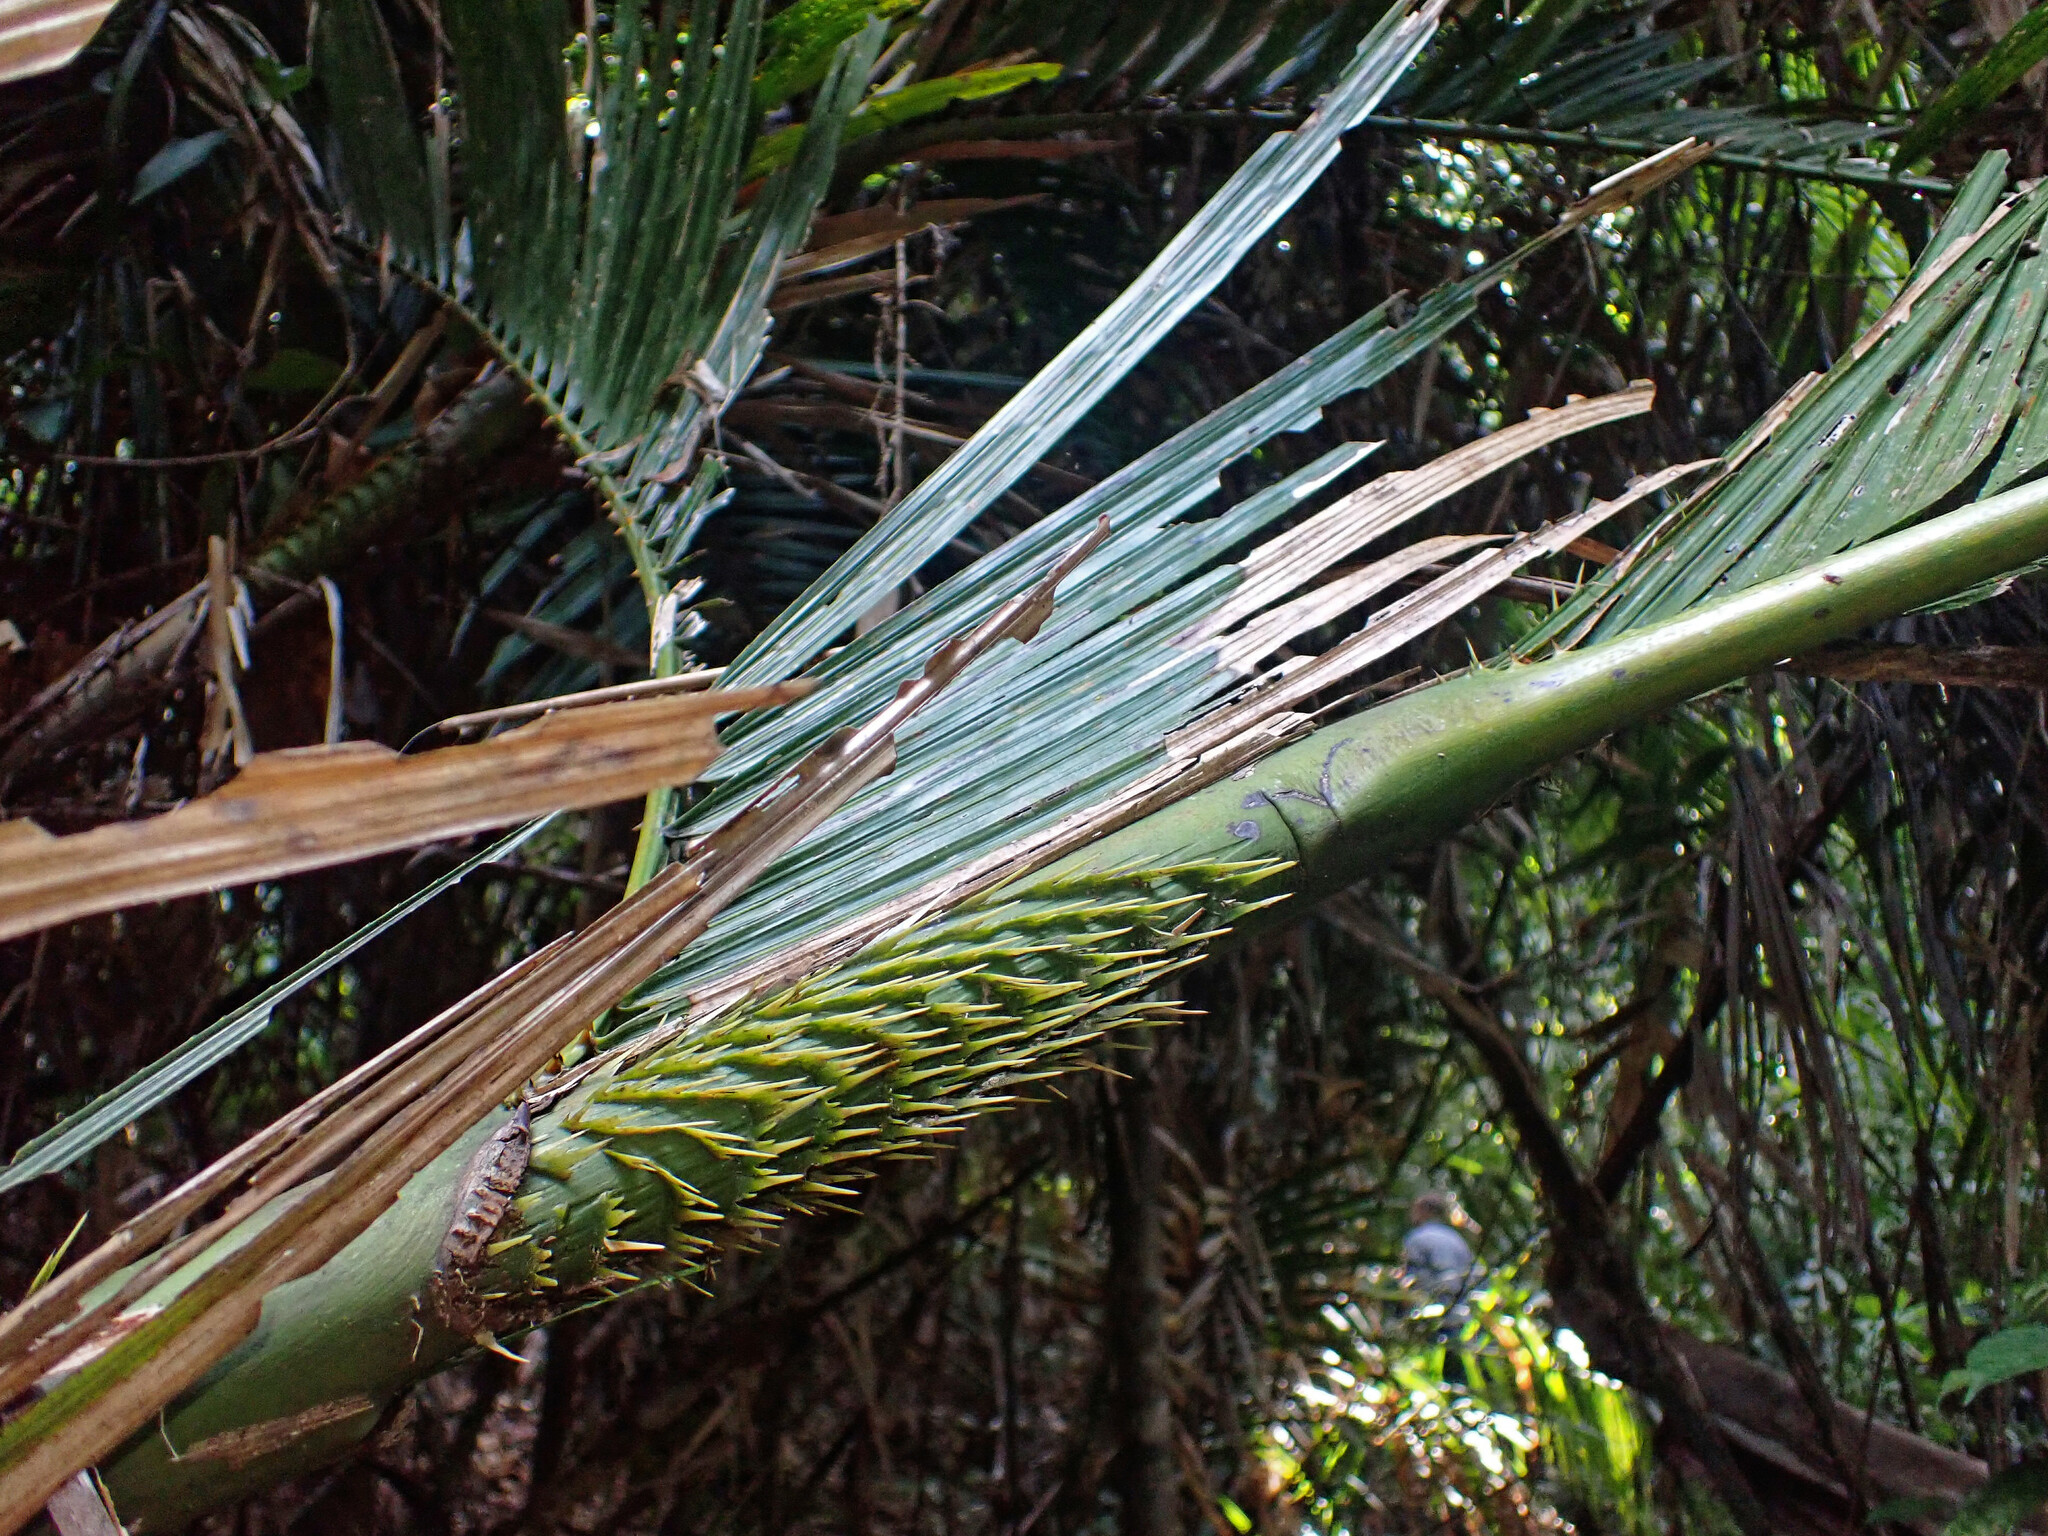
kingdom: Plantae
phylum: Tracheophyta
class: Liliopsida
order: Arecales
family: Arecaceae
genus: Calamus
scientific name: Calamus moti
